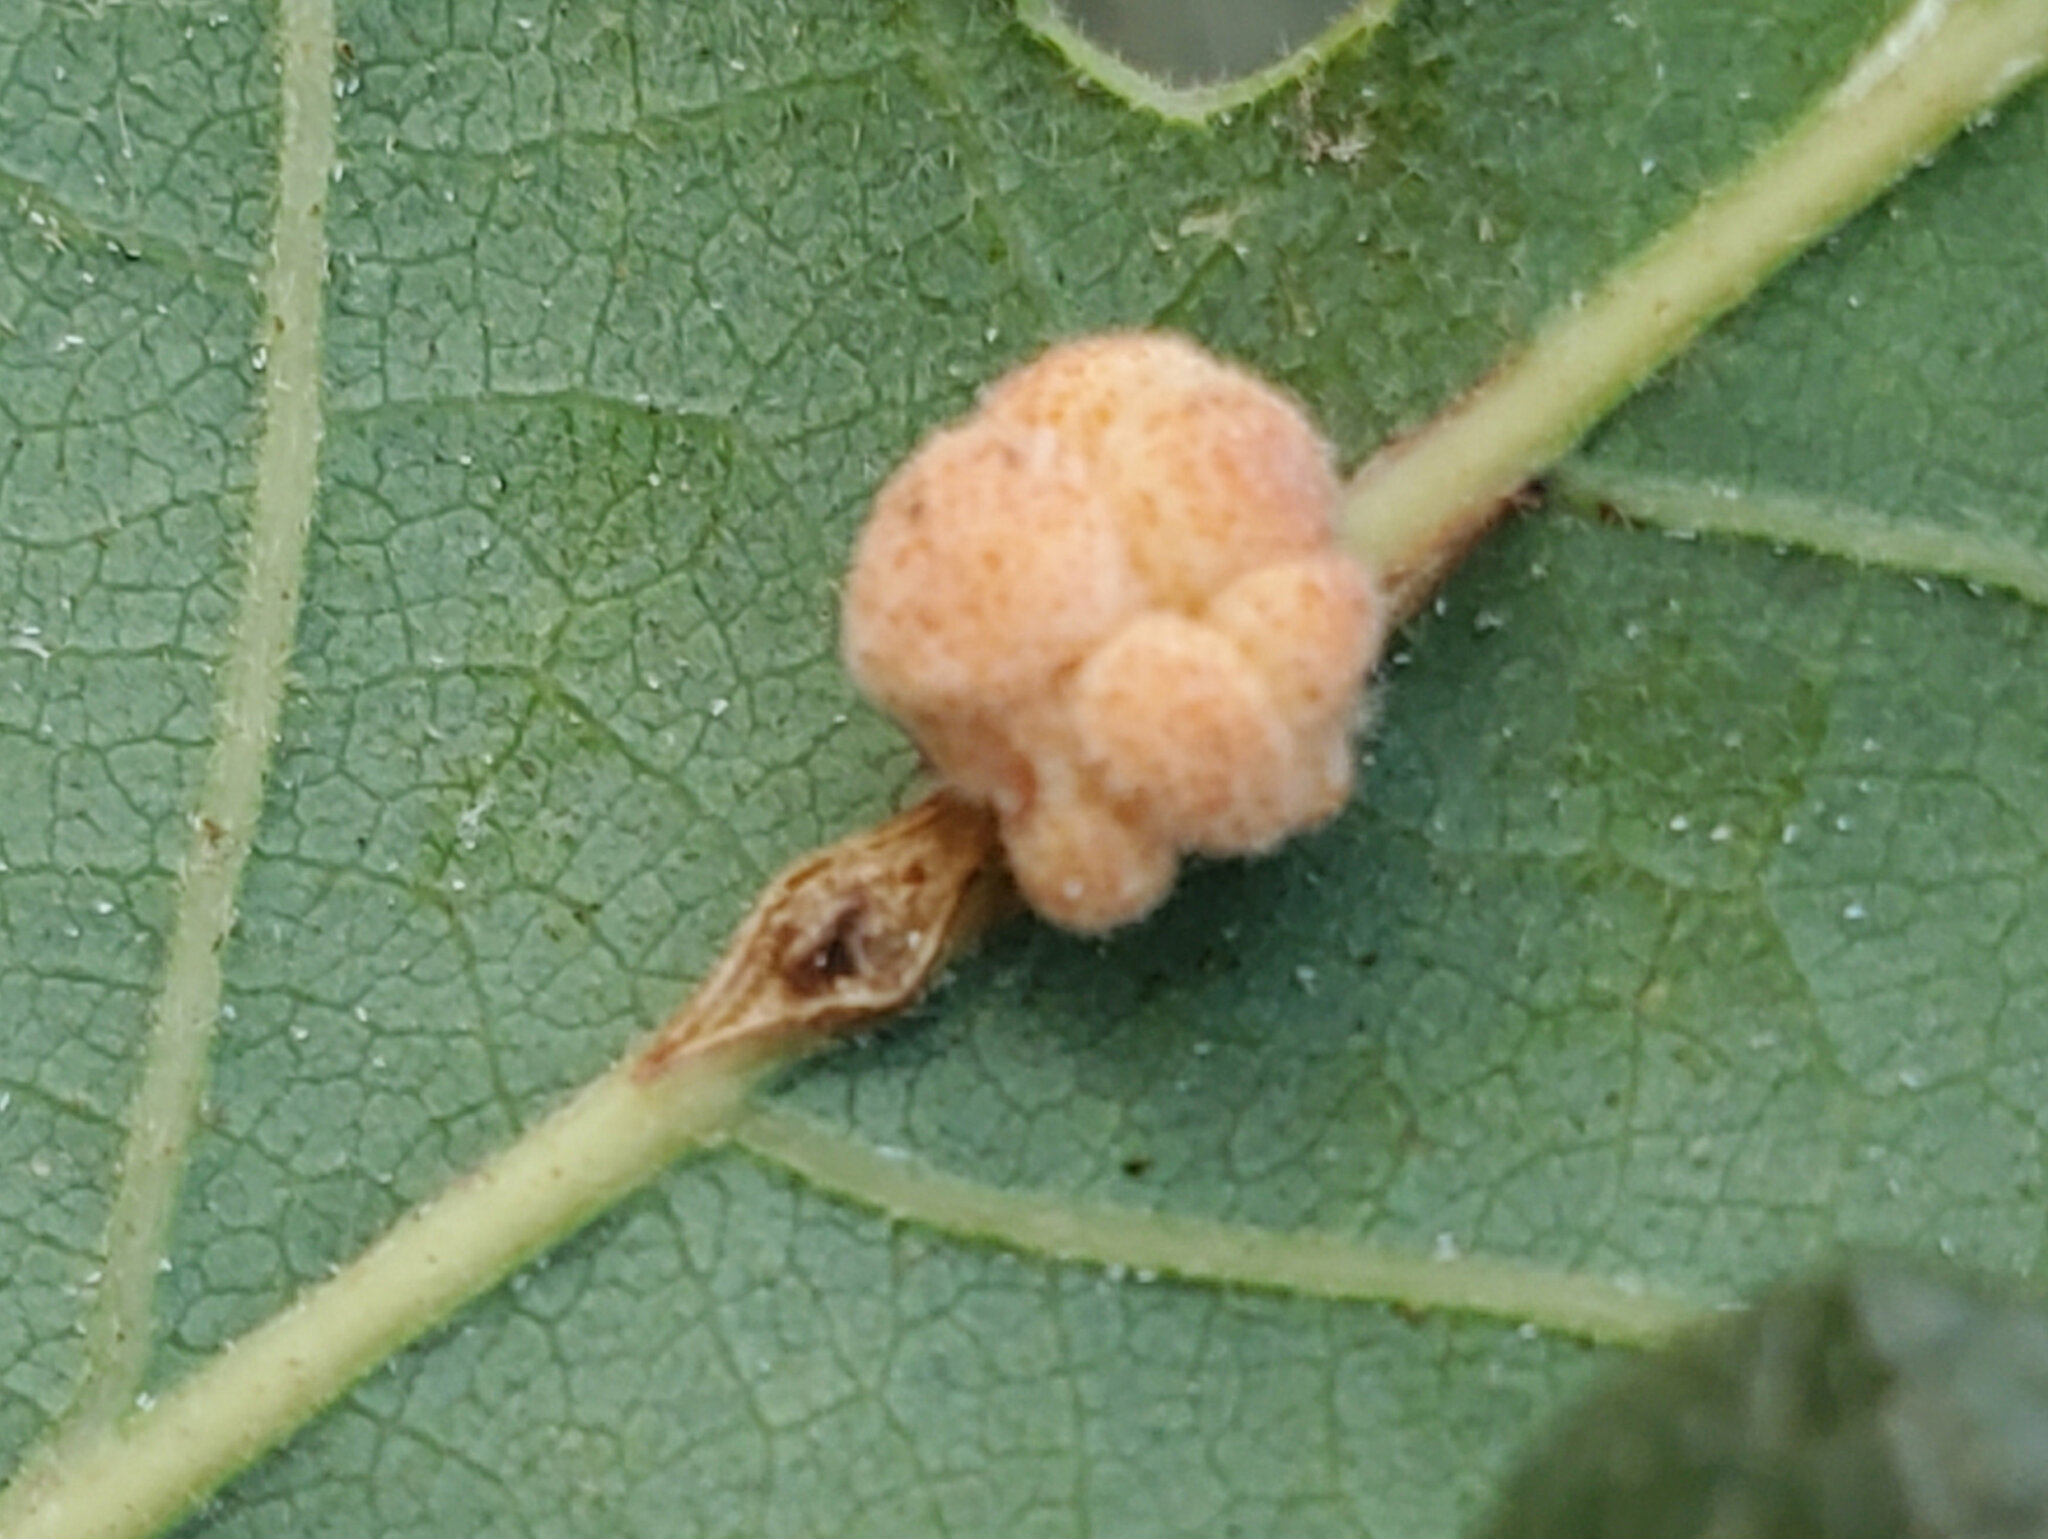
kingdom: Animalia
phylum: Arthropoda
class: Insecta
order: Hymenoptera
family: Cynipidae
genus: Andricus
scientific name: Andricus
